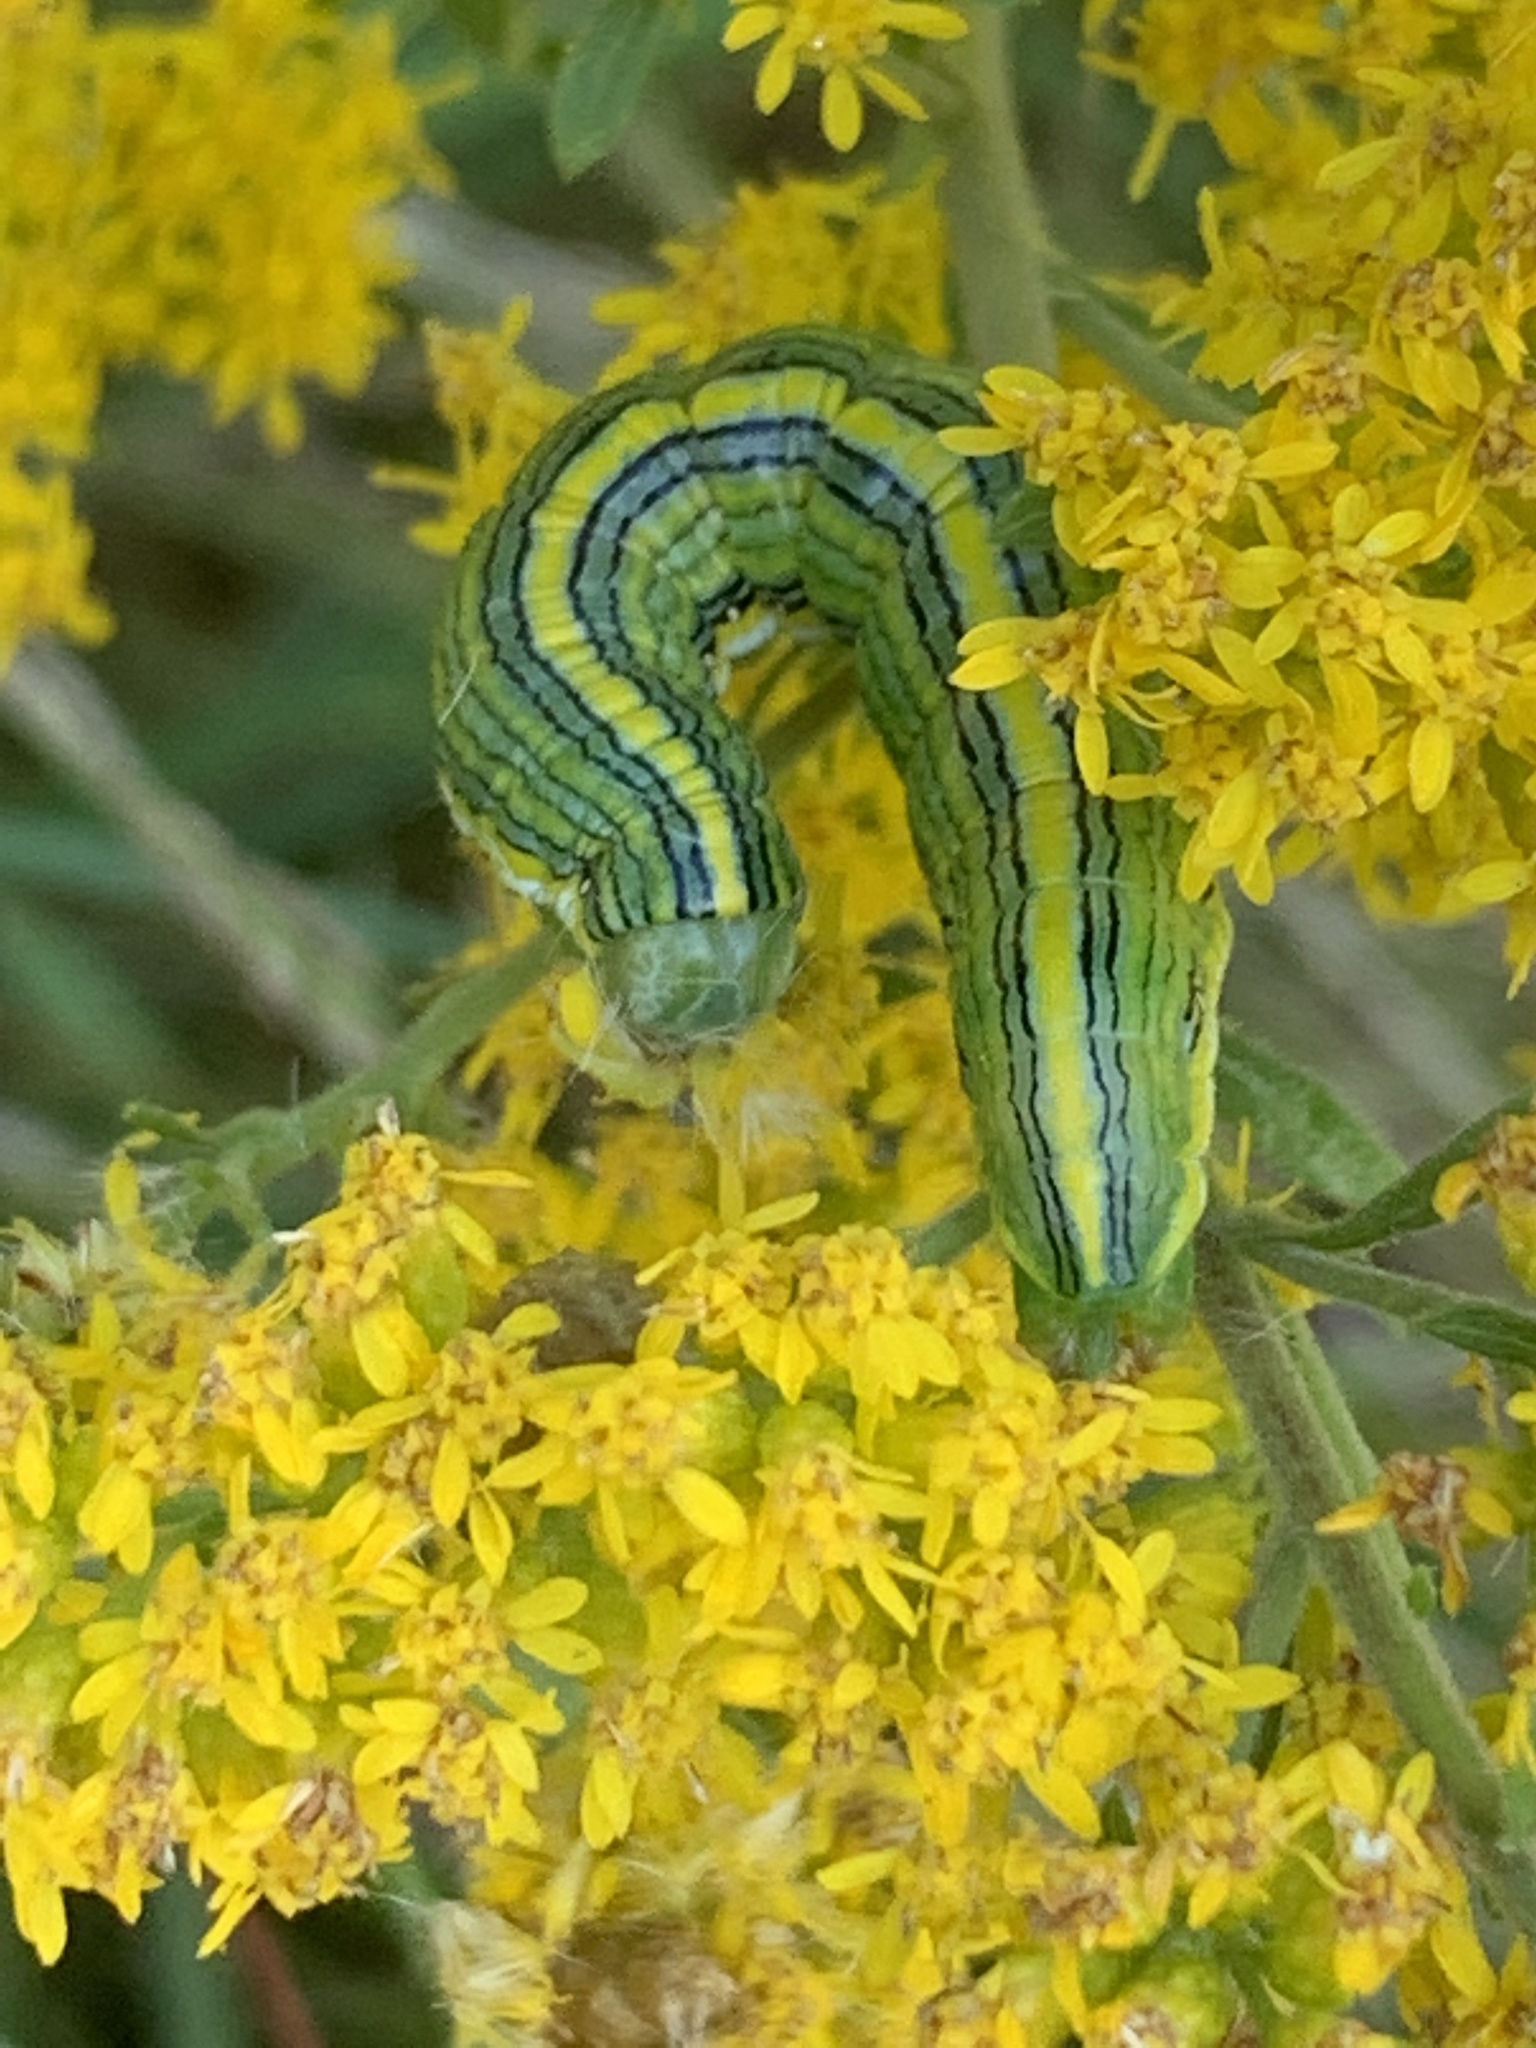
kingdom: Animalia
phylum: Arthropoda
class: Insecta
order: Lepidoptera
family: Noctuidae
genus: Cucullia
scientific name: Cucullia asteroides
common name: Asteroid moth
